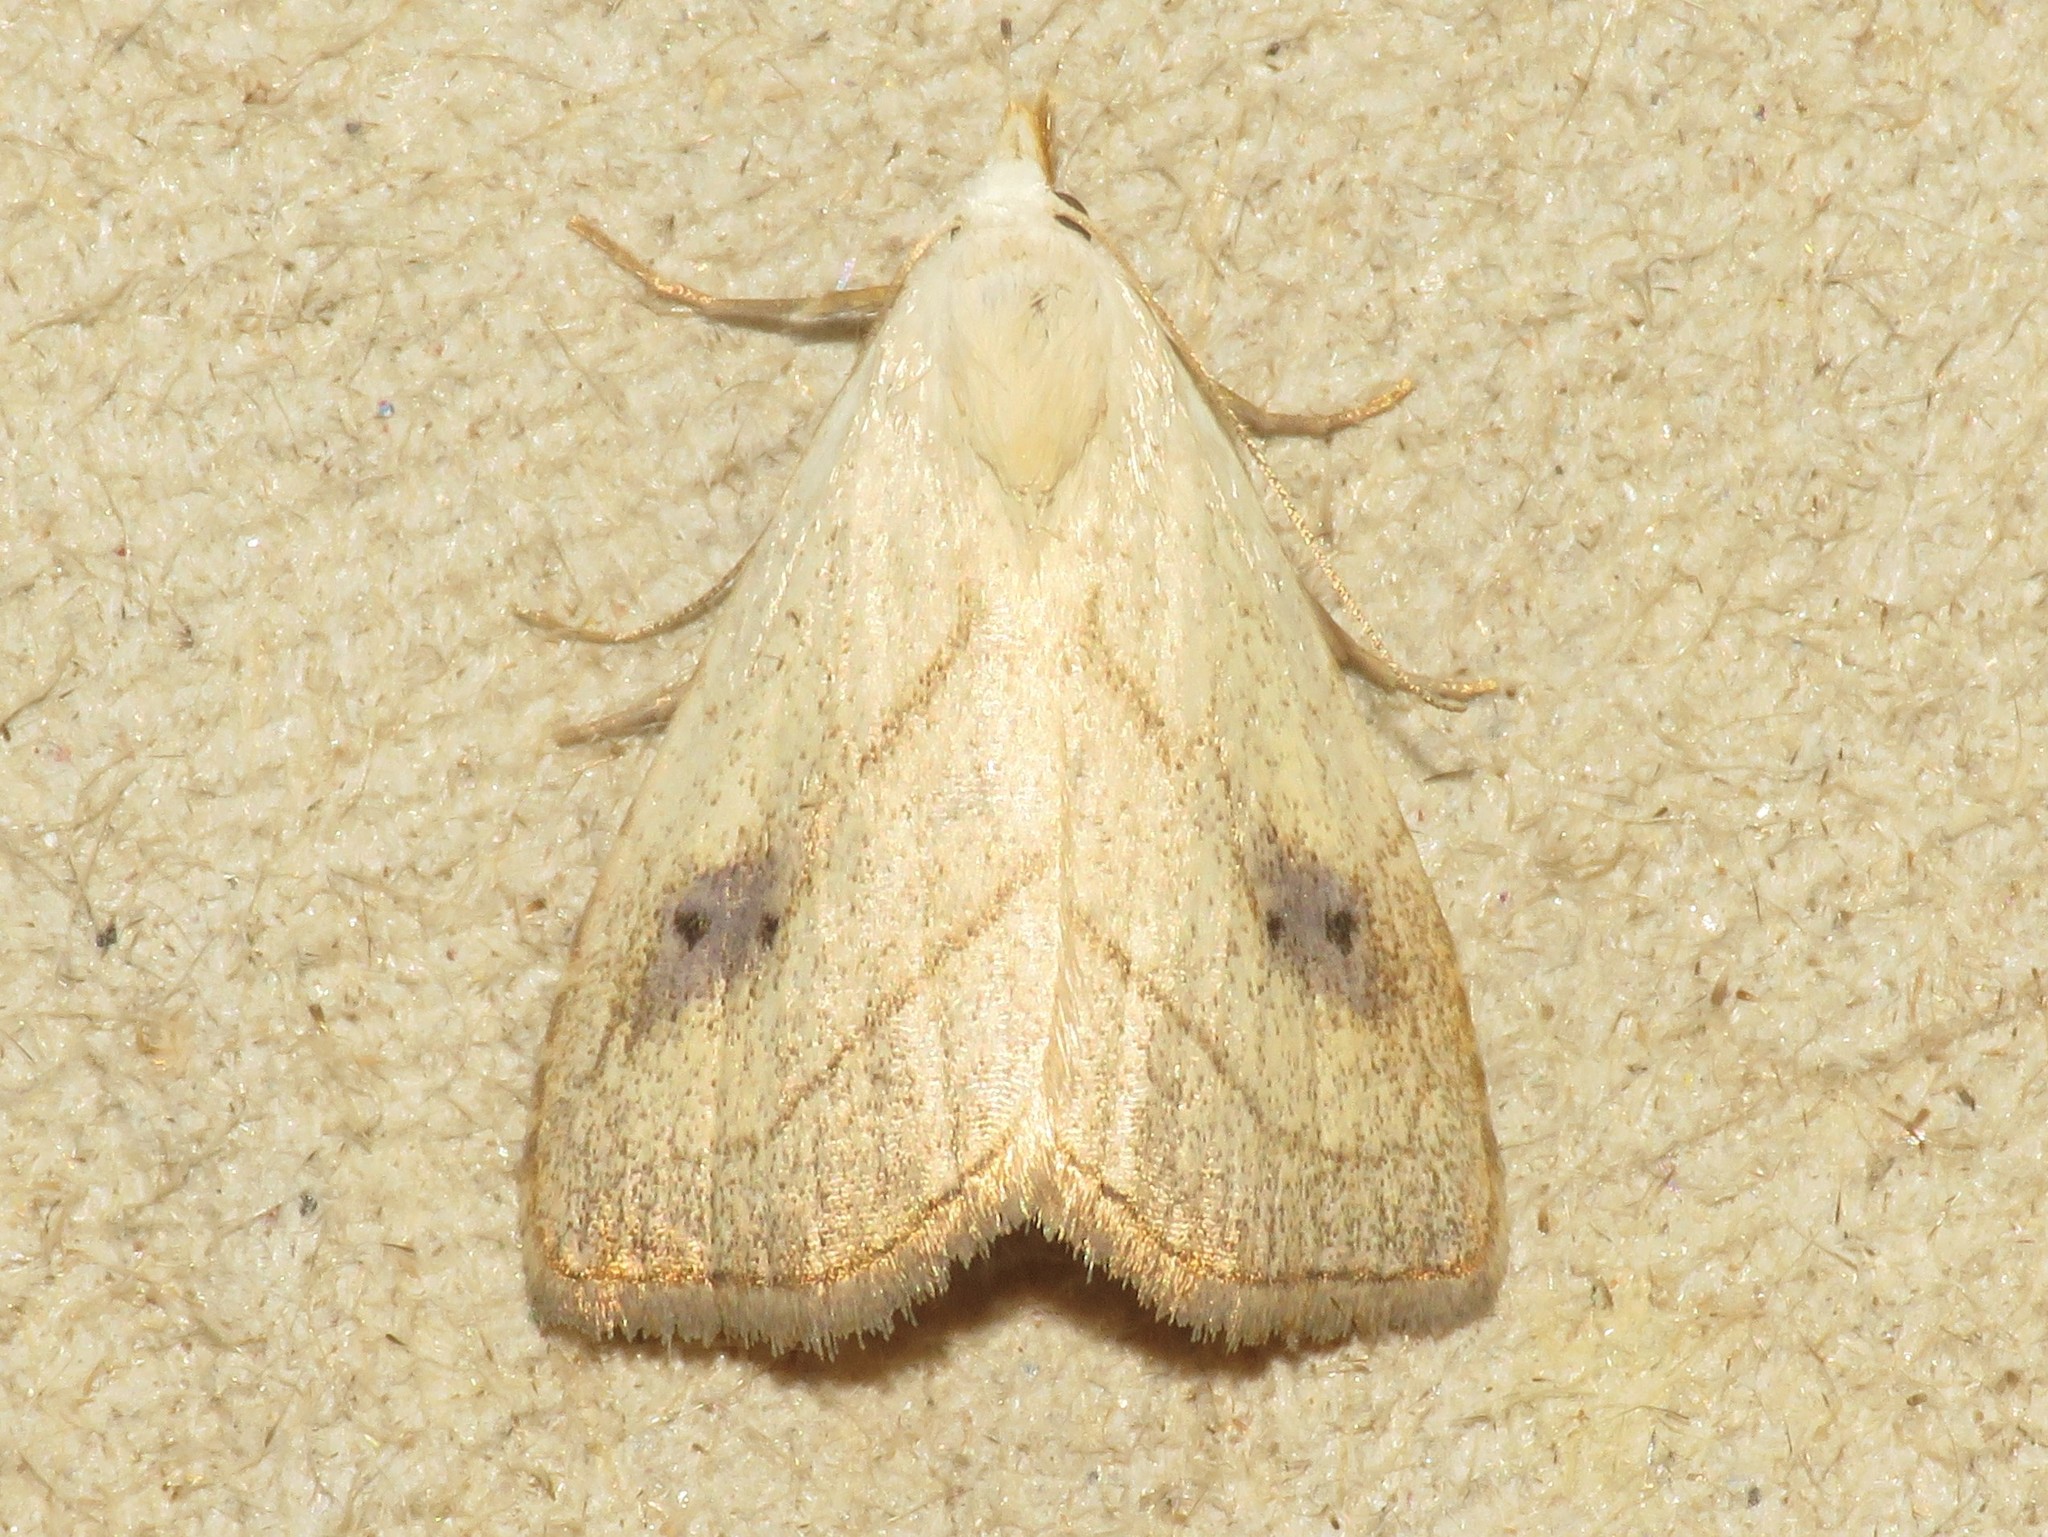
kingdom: Animalia
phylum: Arthropoda
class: Insecta
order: Lepidoptera
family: Erebidae
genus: Rivula
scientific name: Rivula propinqualis
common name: Spotted grass moth
